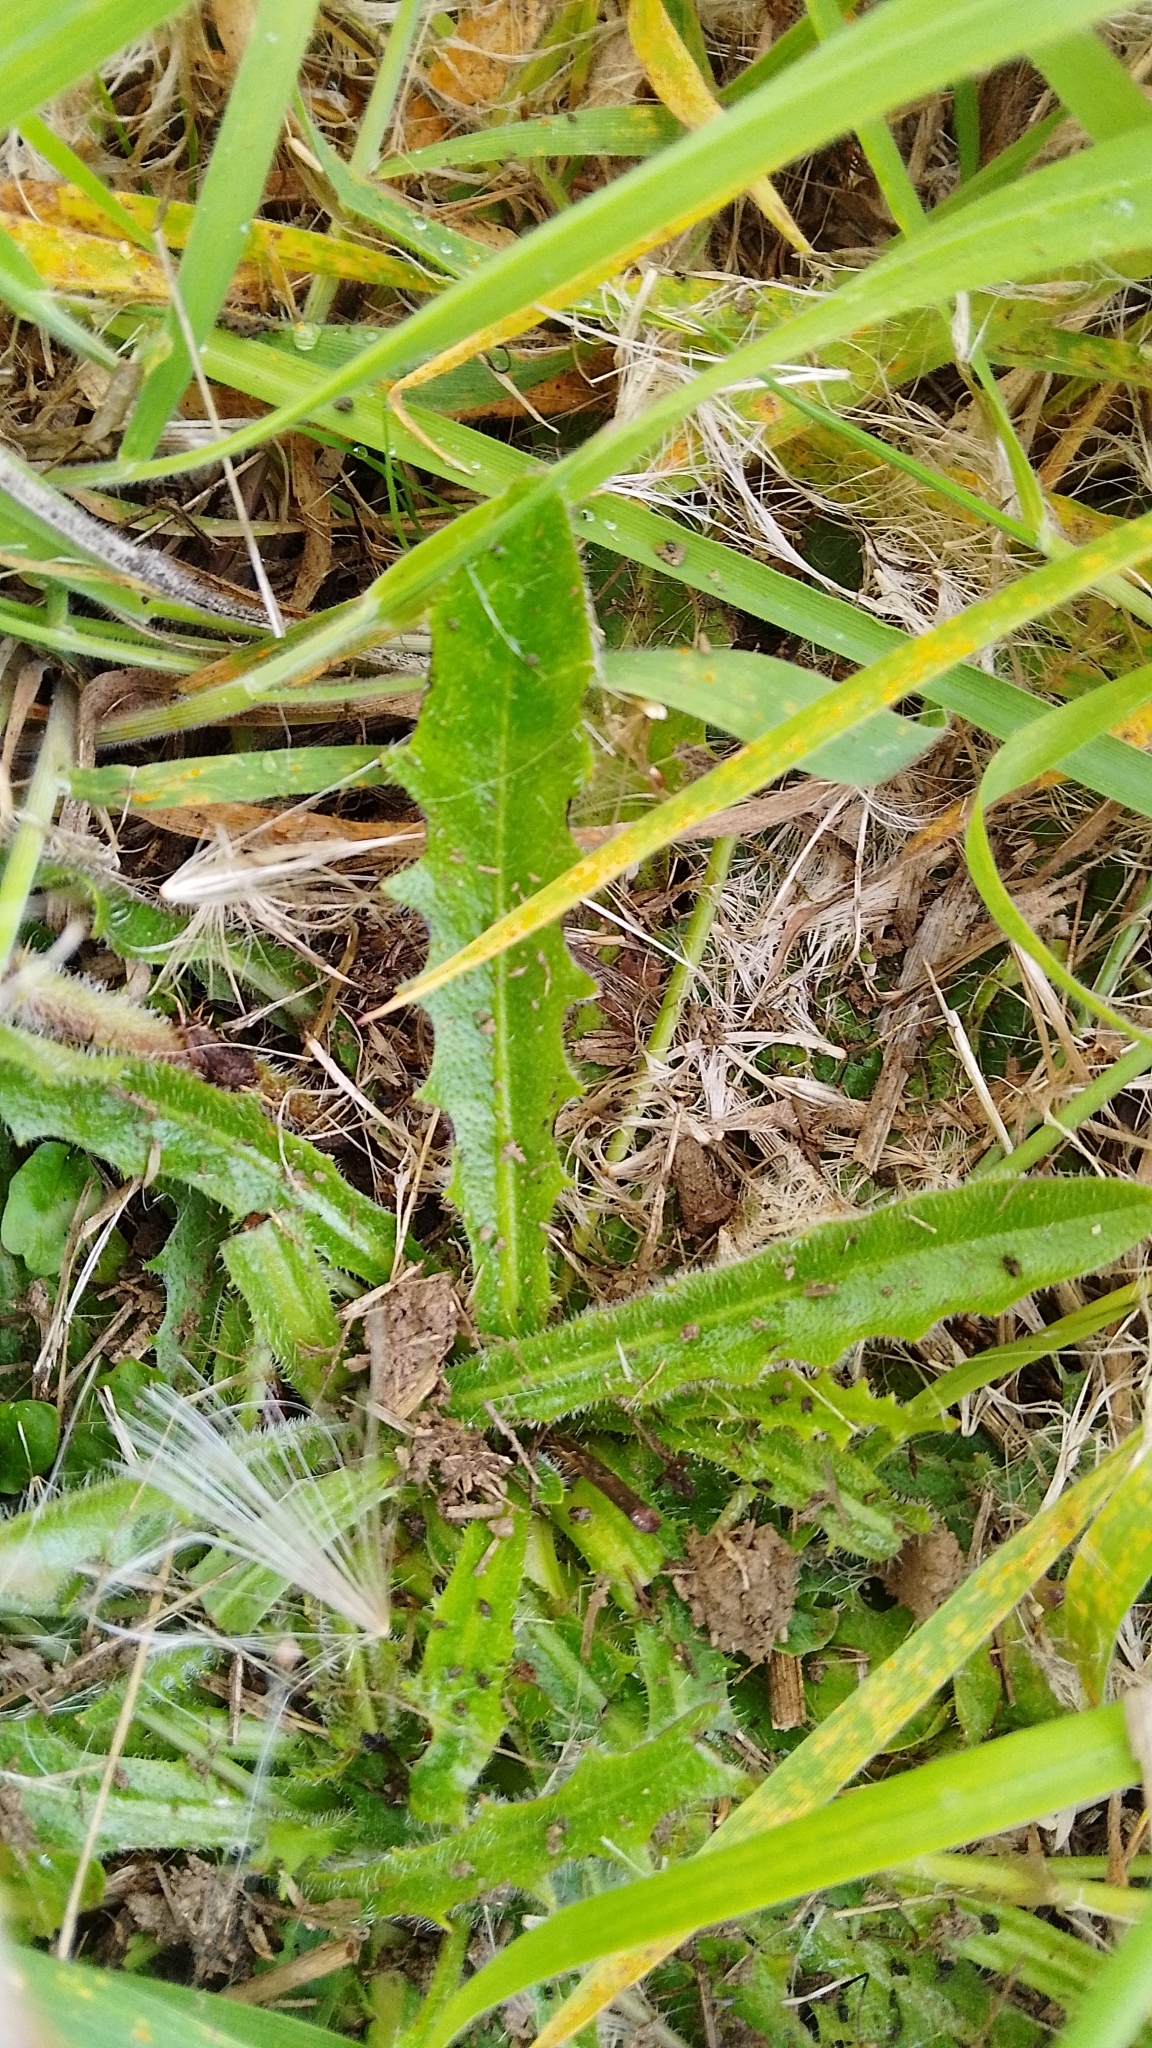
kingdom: Plantae
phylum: Tracheophyta
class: Magnoliopsida
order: Asterales
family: Asteraceae
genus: Hypochaeris
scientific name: Hypochaeris radicata
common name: Flatweed
